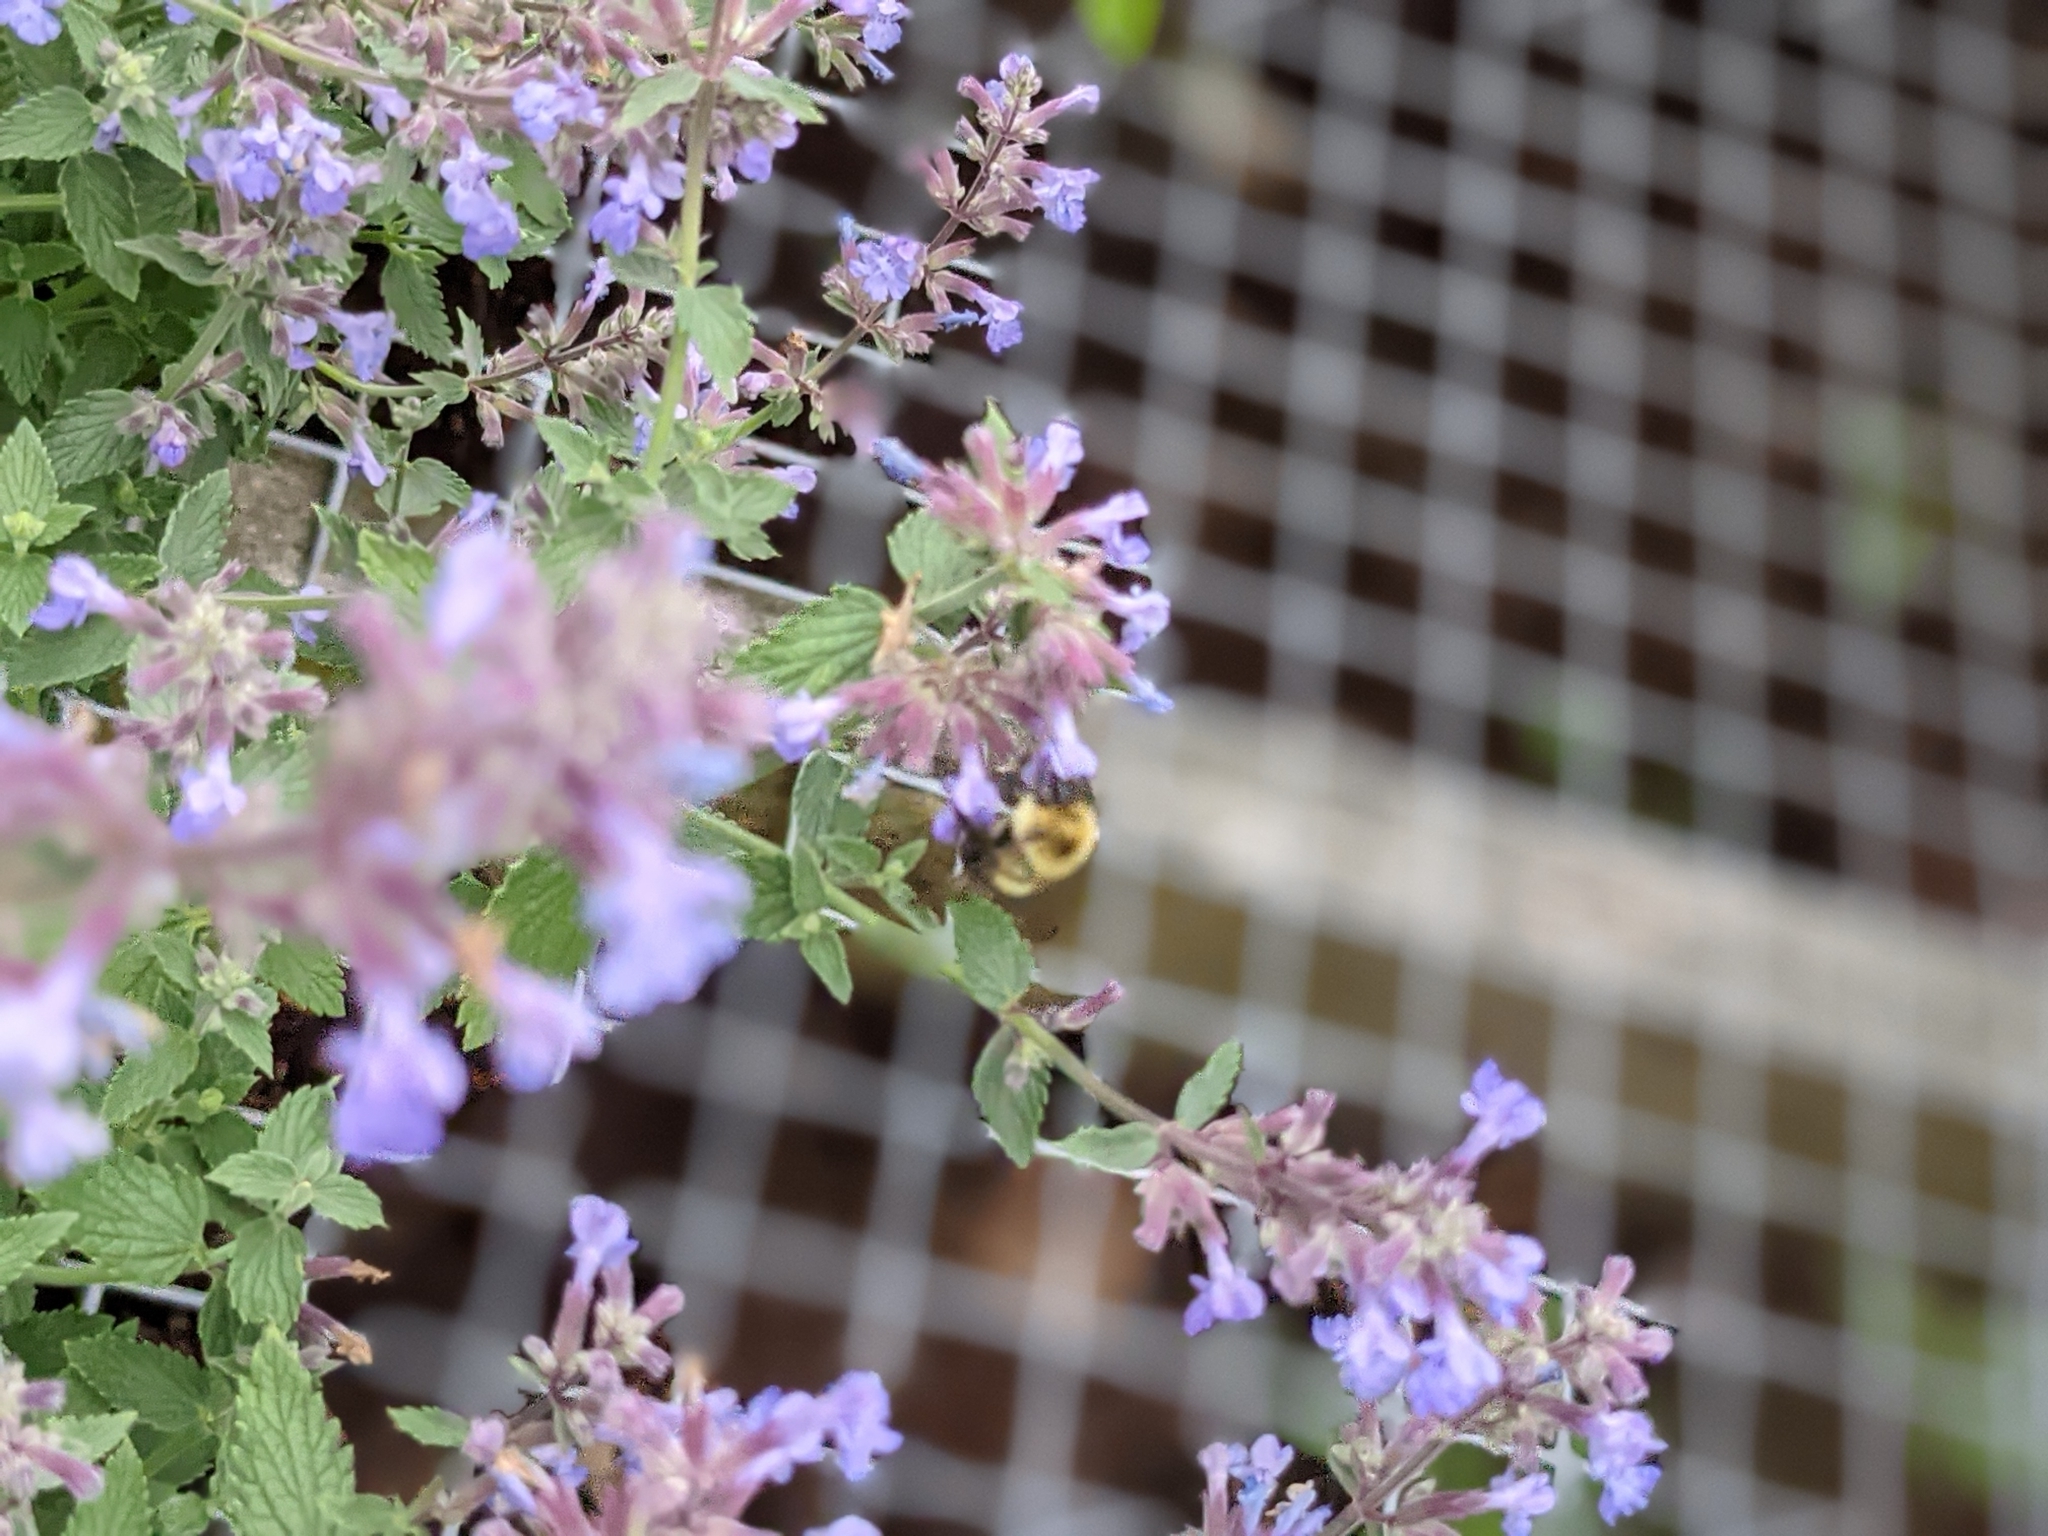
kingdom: Animalia
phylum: Arthropoda
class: Insecta
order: Hymenoptera
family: Apidae
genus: Bombus
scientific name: Bombus bimaculatus
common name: Two-spotted bumble bee
